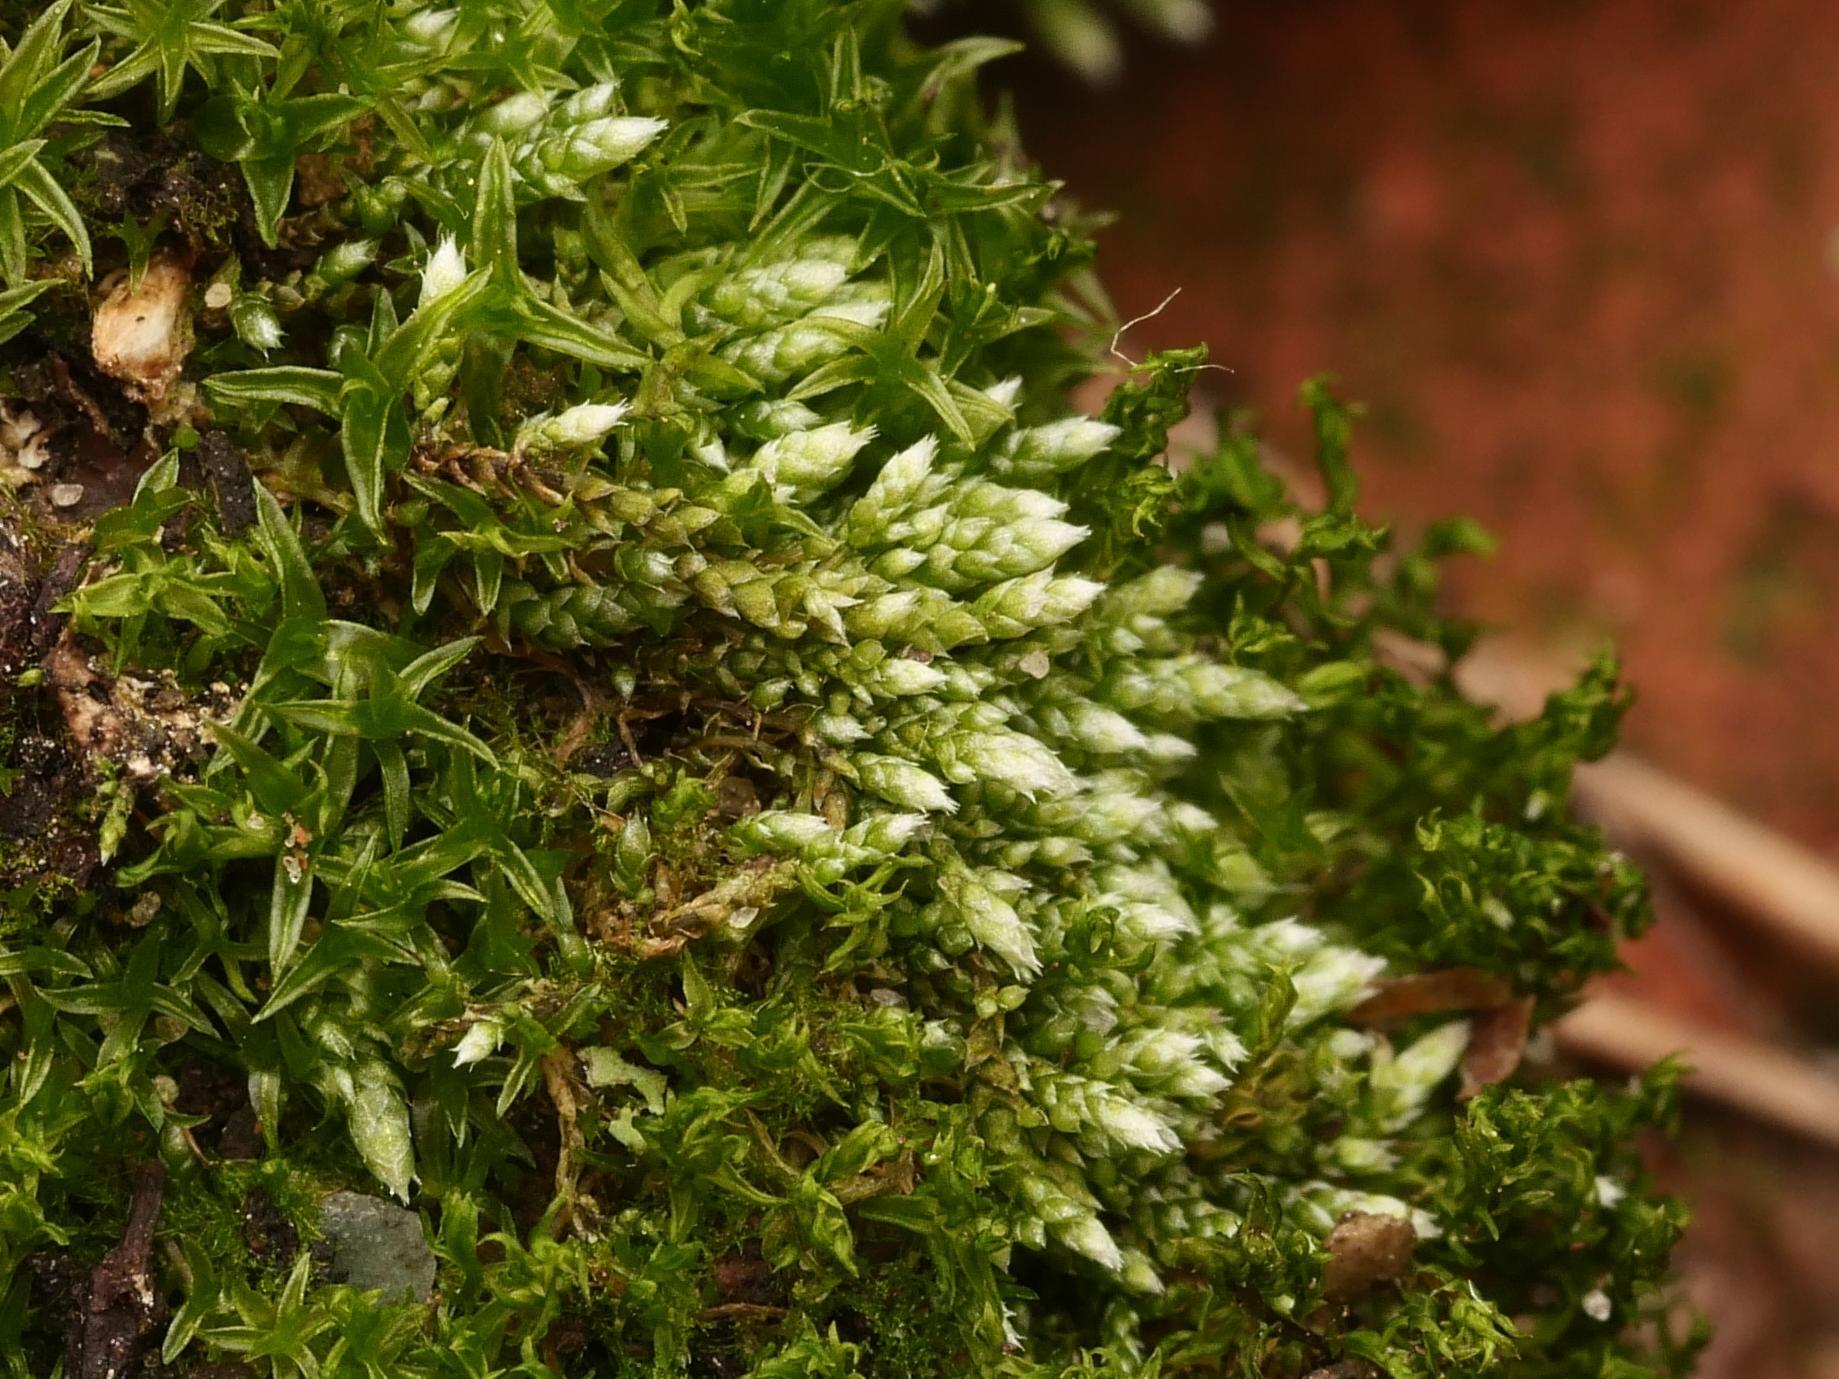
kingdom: Plantae
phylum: Bryophyta
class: Bryopsida
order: Bryales
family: Bryaceae
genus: Bryum
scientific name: Bryum argenteum
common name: Silver-moss
